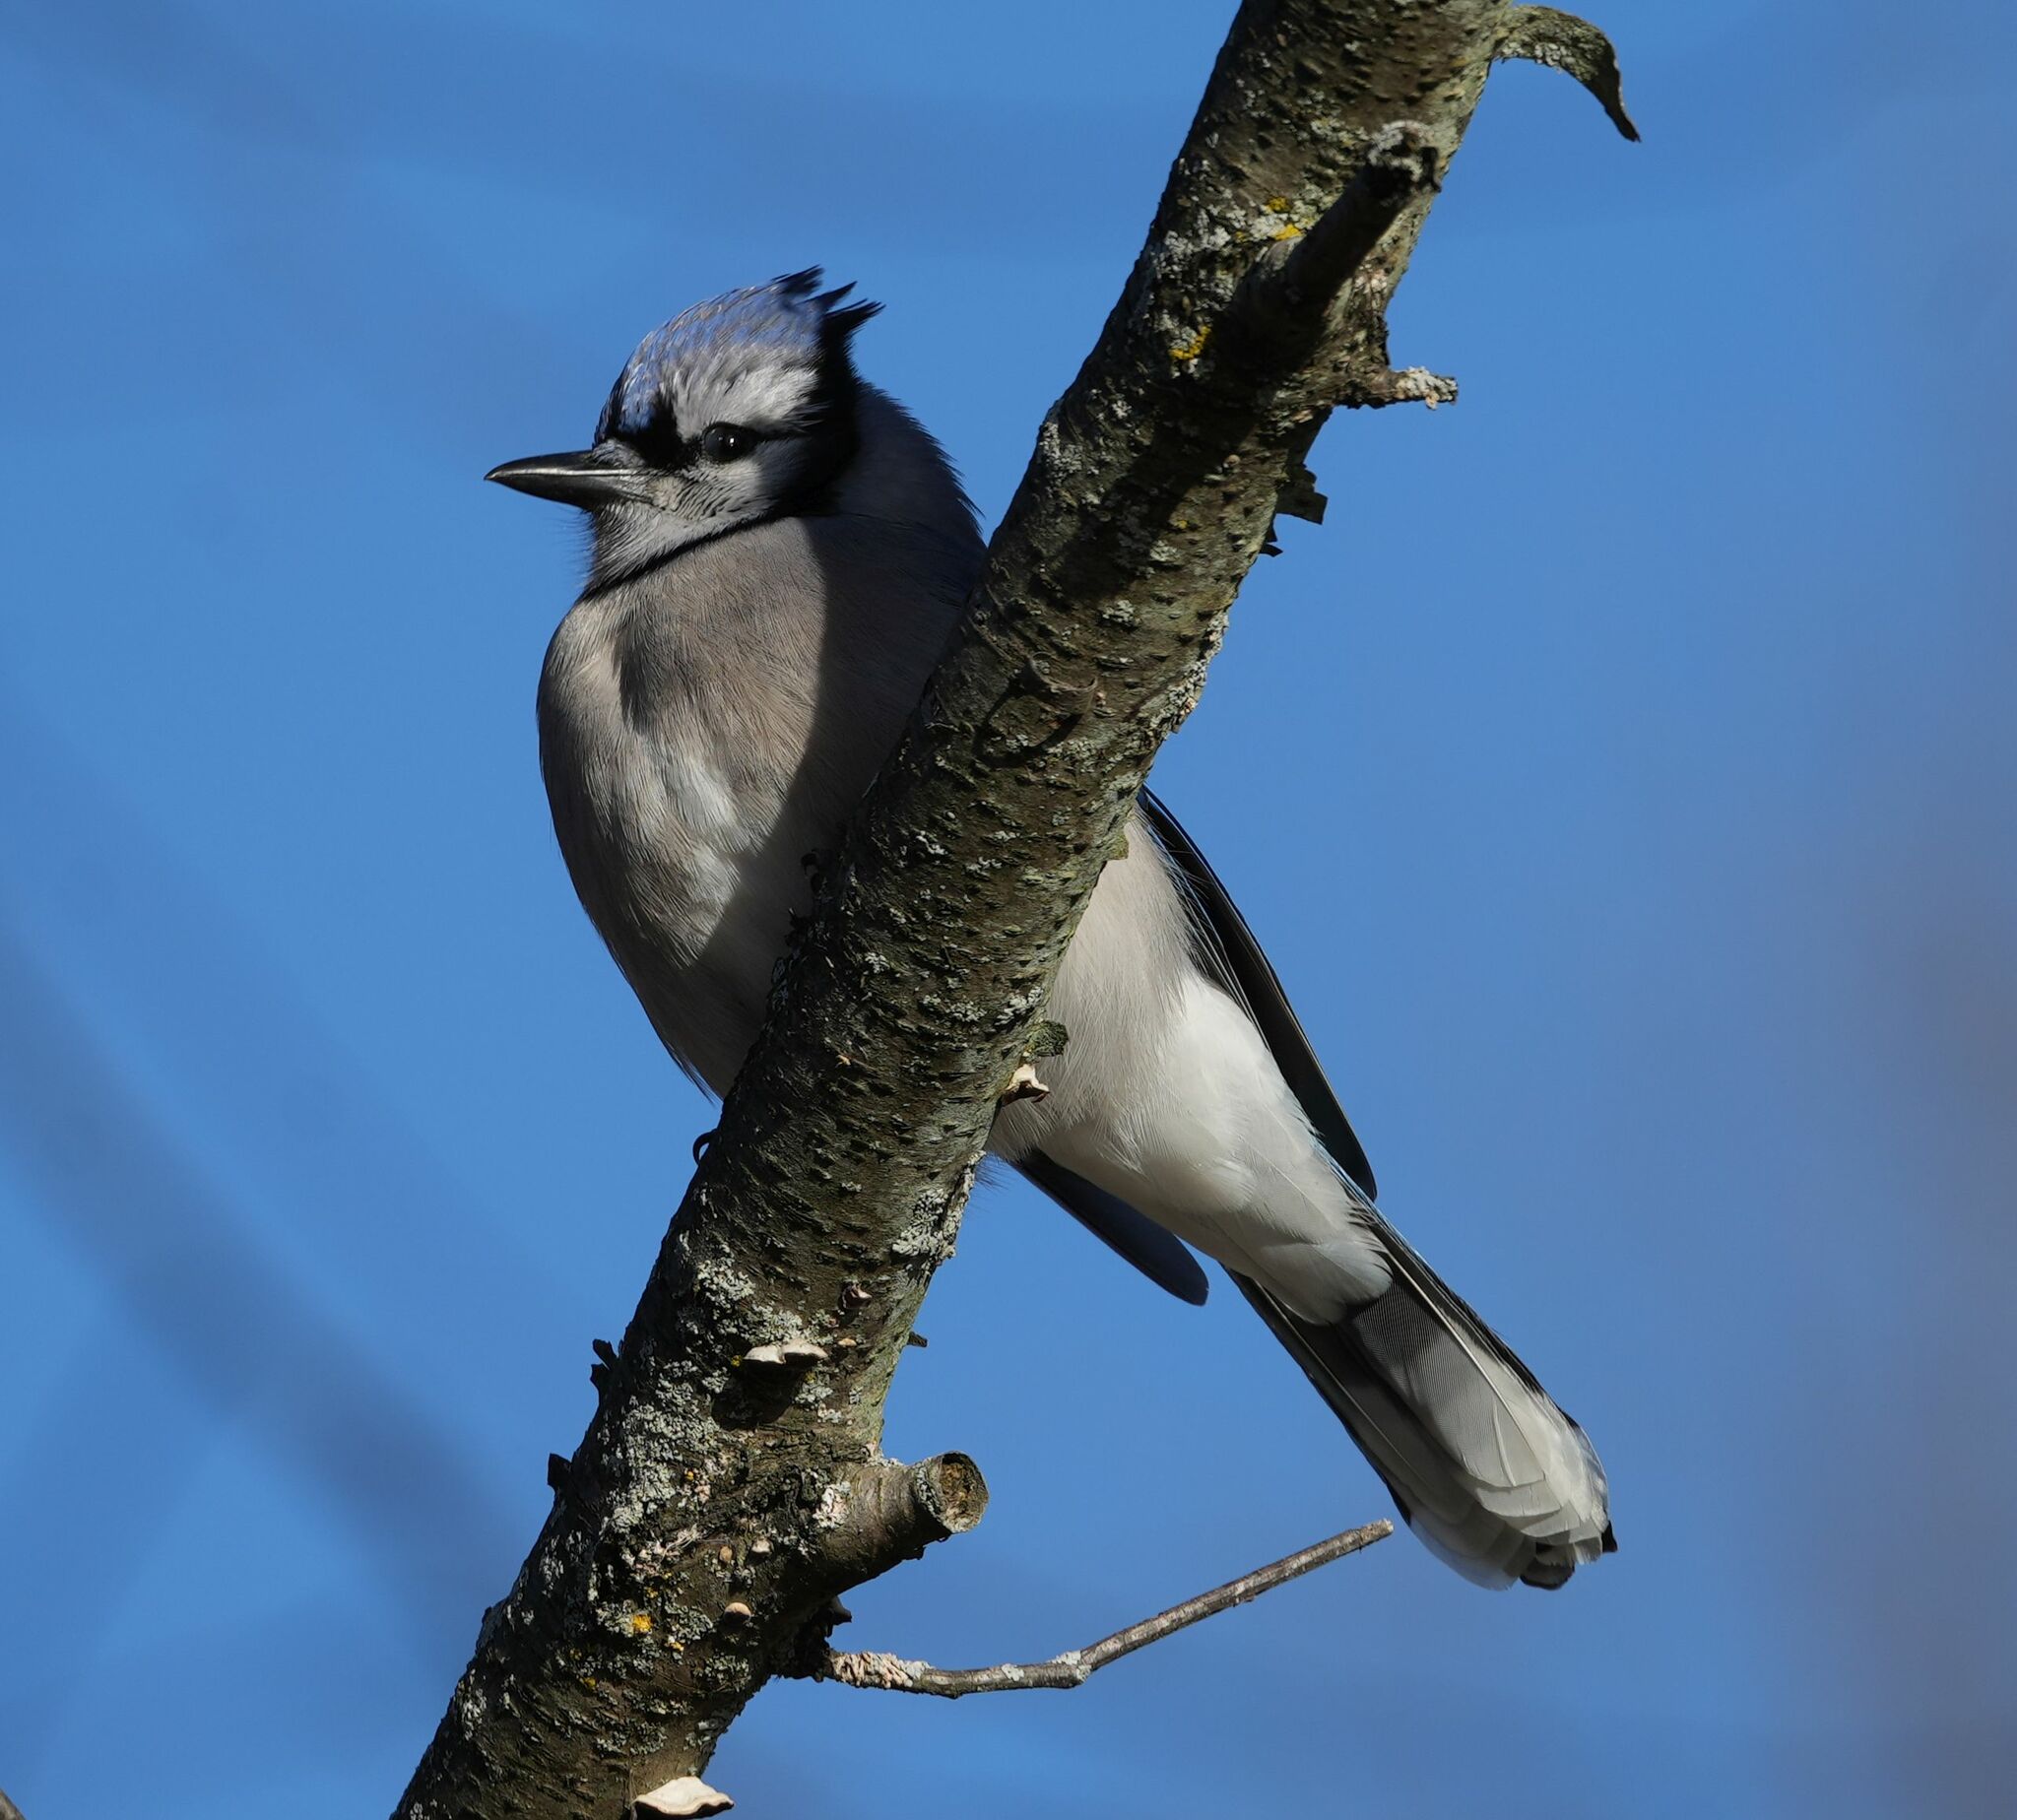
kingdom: Animalia
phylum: Chordata
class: Aves
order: Passeriformes
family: Corvidae
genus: Cyanocitta
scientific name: Cyanocitta cristata
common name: Blue jay
